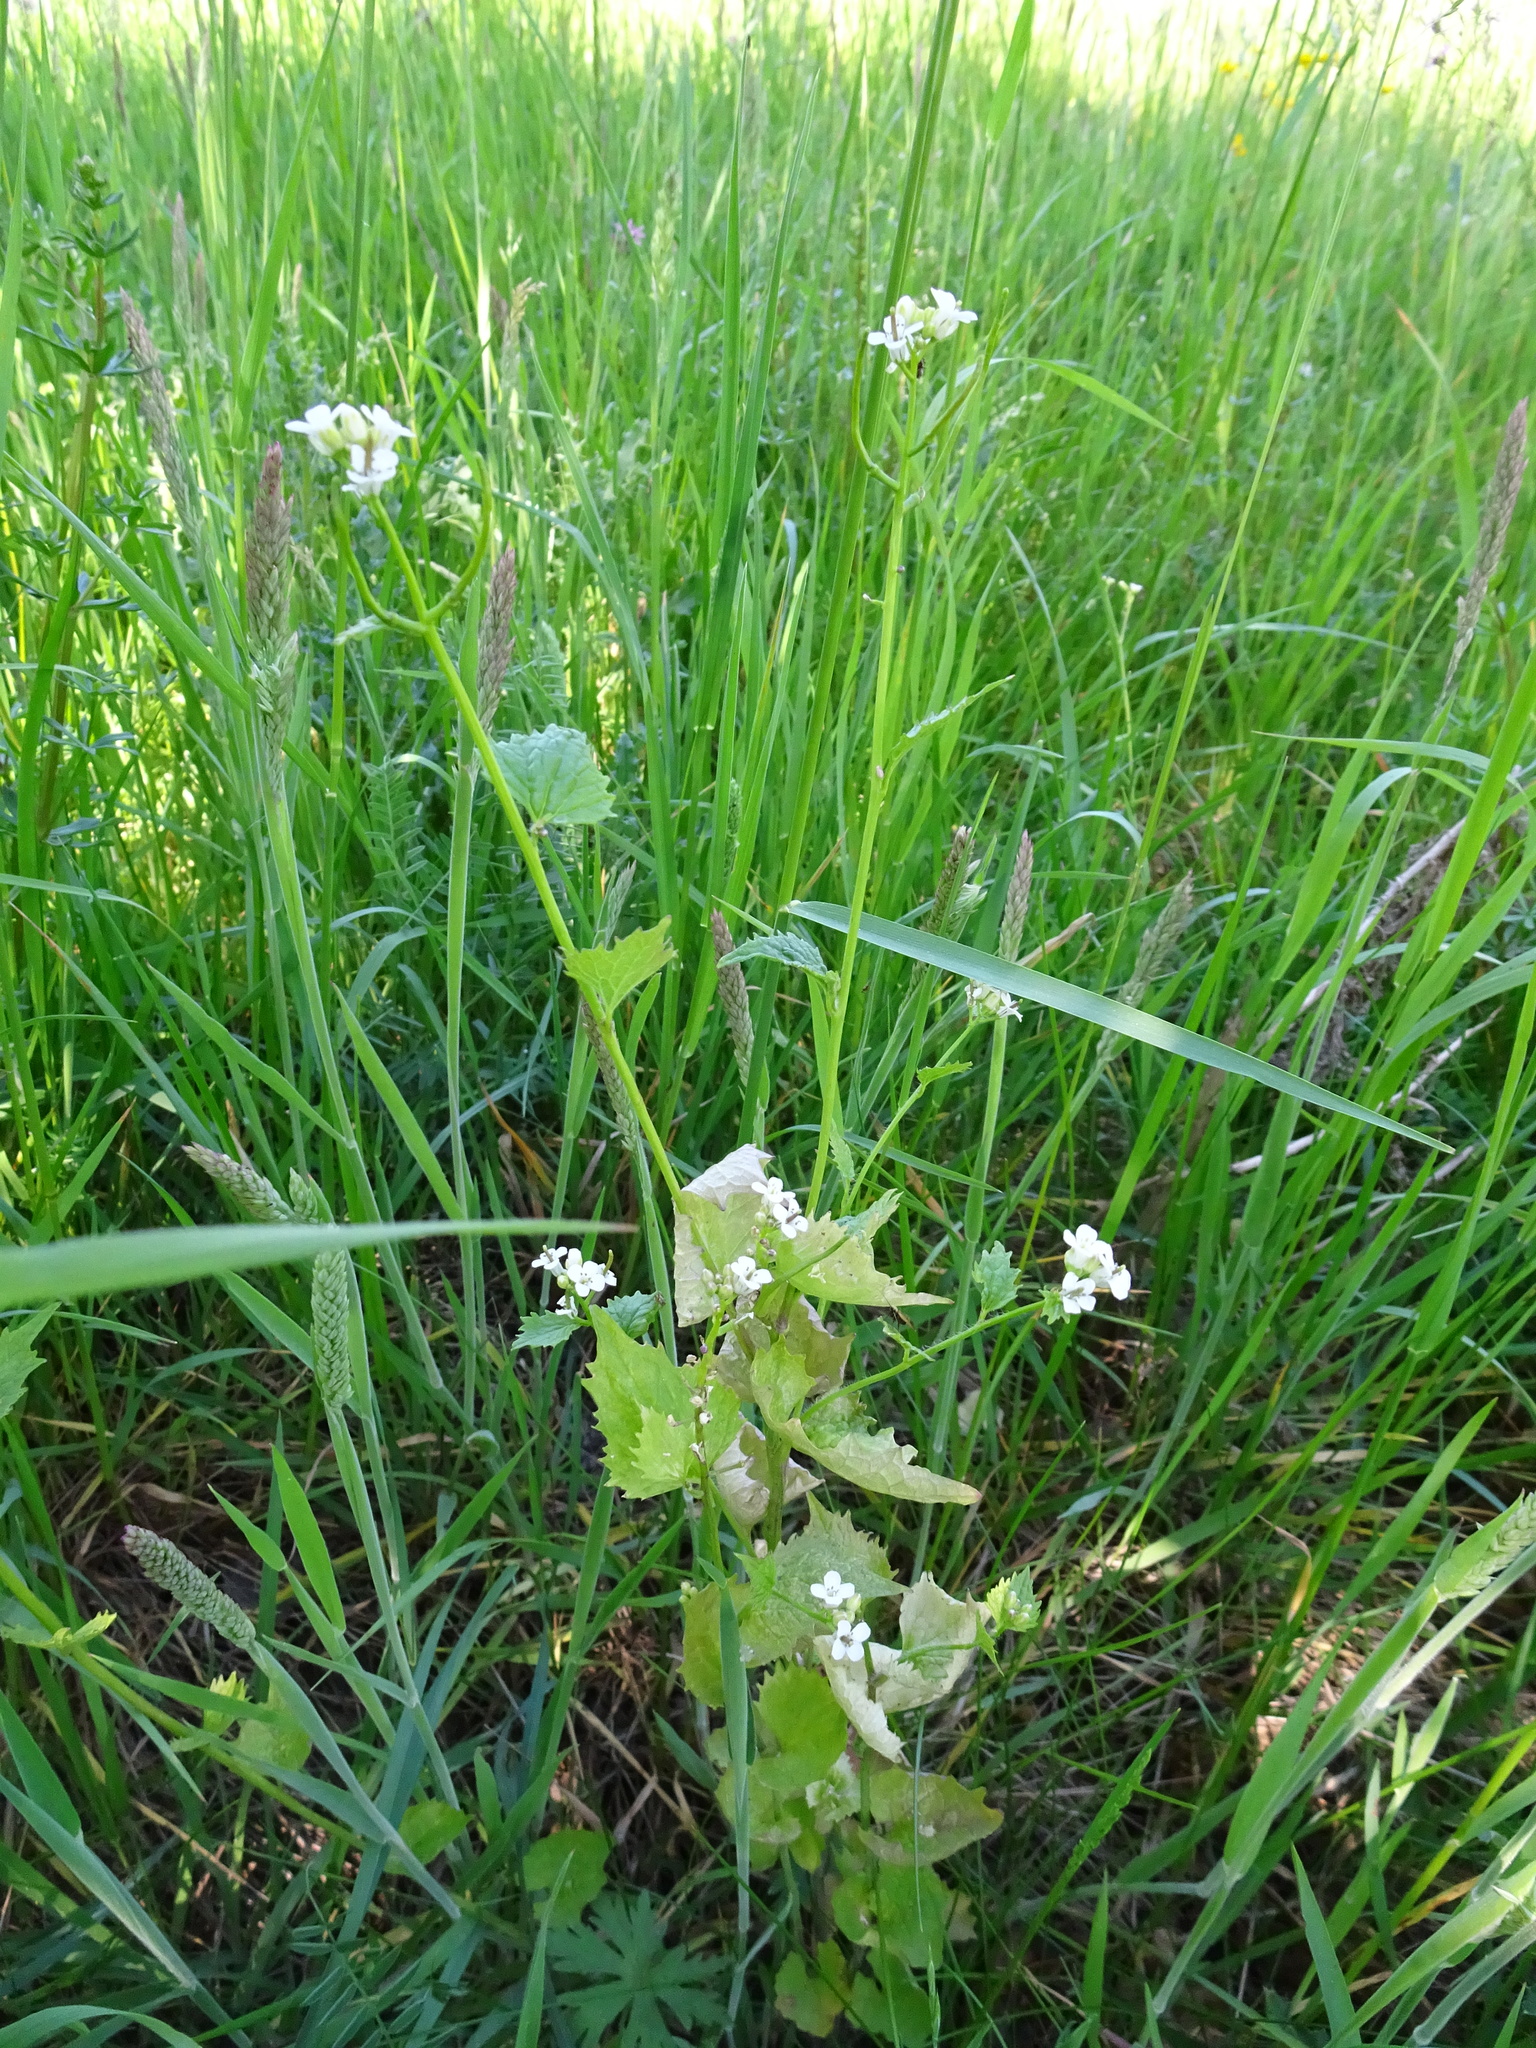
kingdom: Plantae
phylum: Tracheophyta
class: Magnoliopsida
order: Brassicales
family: Brassicaceae
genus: Alliaria
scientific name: Alliaria petiolata
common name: Garlic mustard
